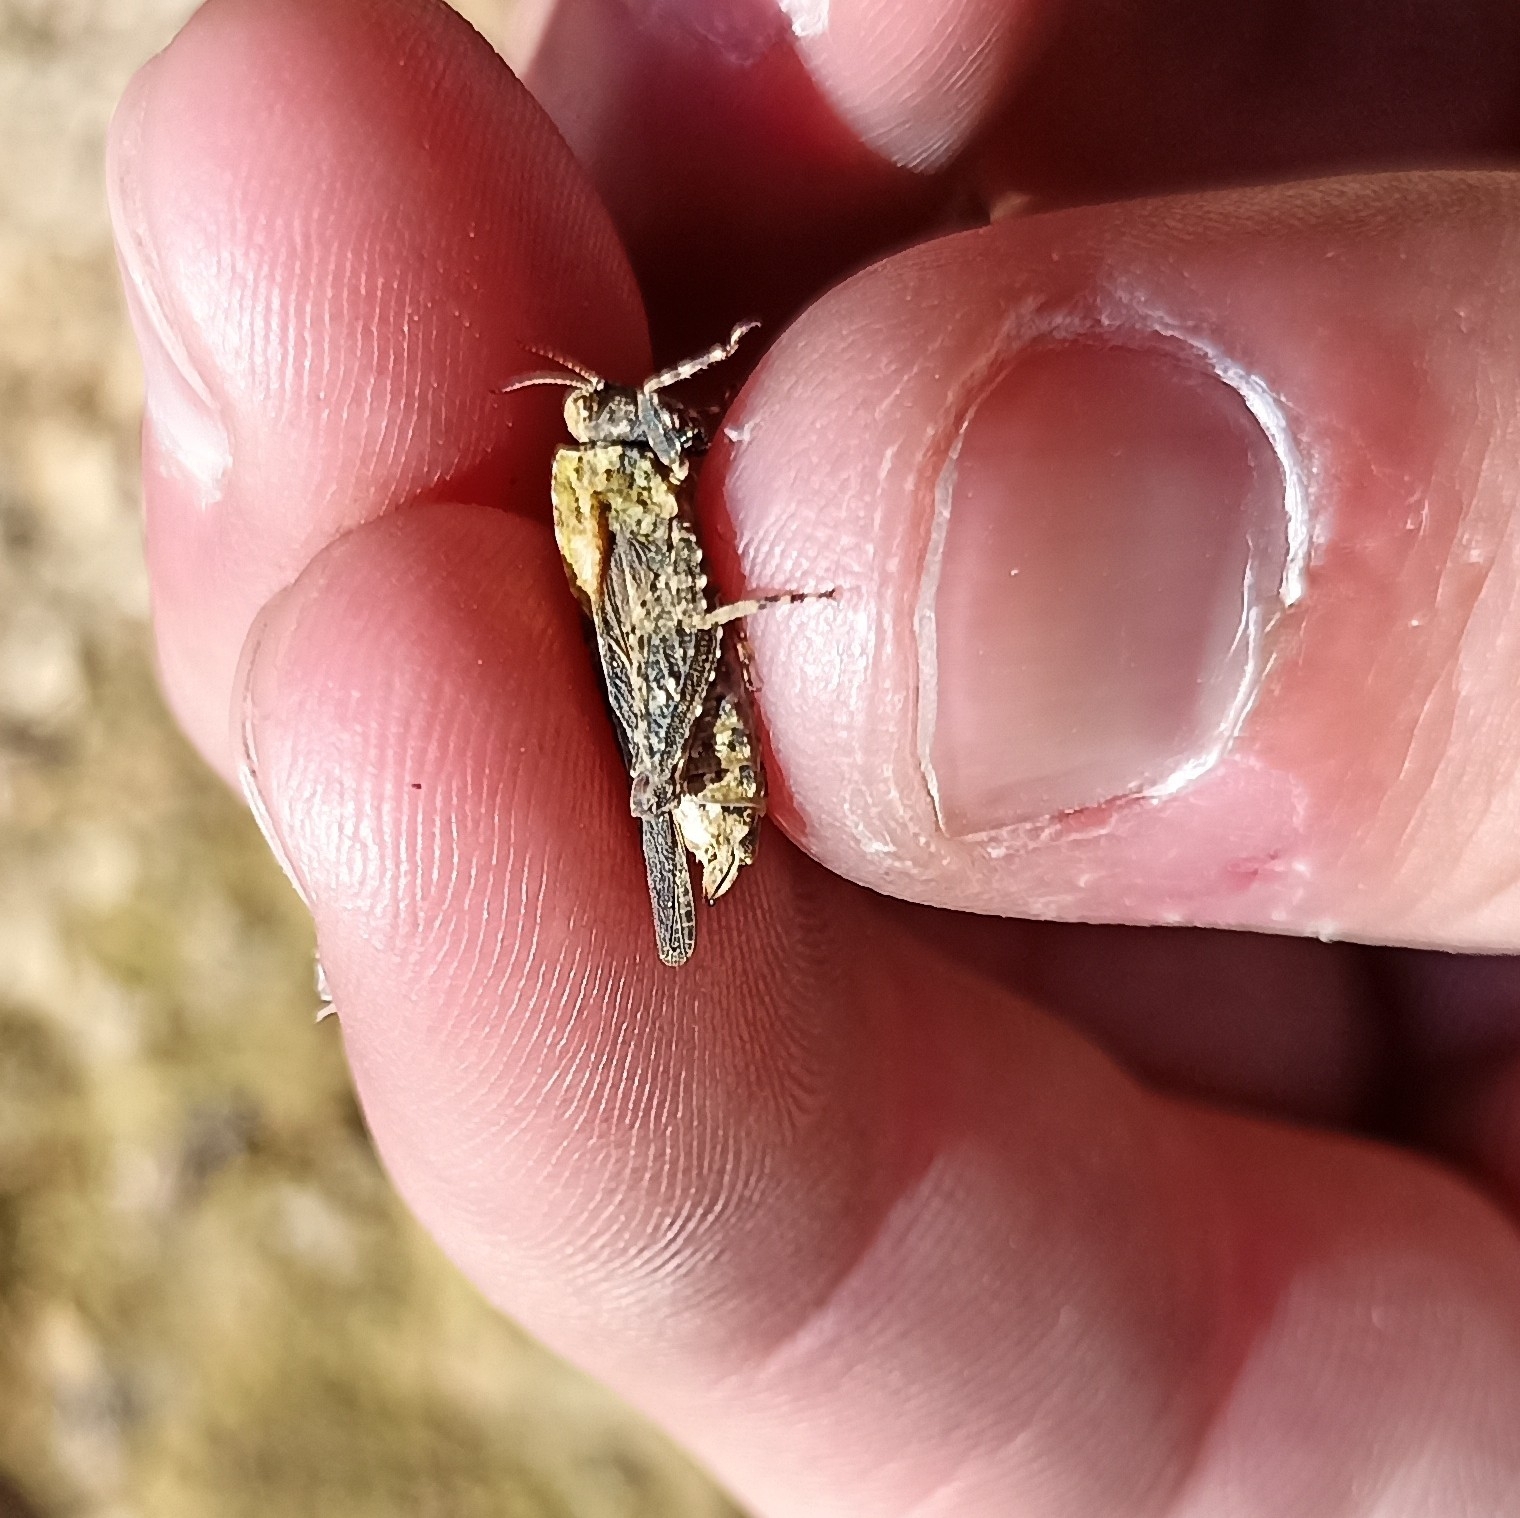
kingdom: Animalia
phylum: Arthropoda
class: Insecta
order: Orthoptera
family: Tetrigidae
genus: Tetrix
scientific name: Tetrix depressa
